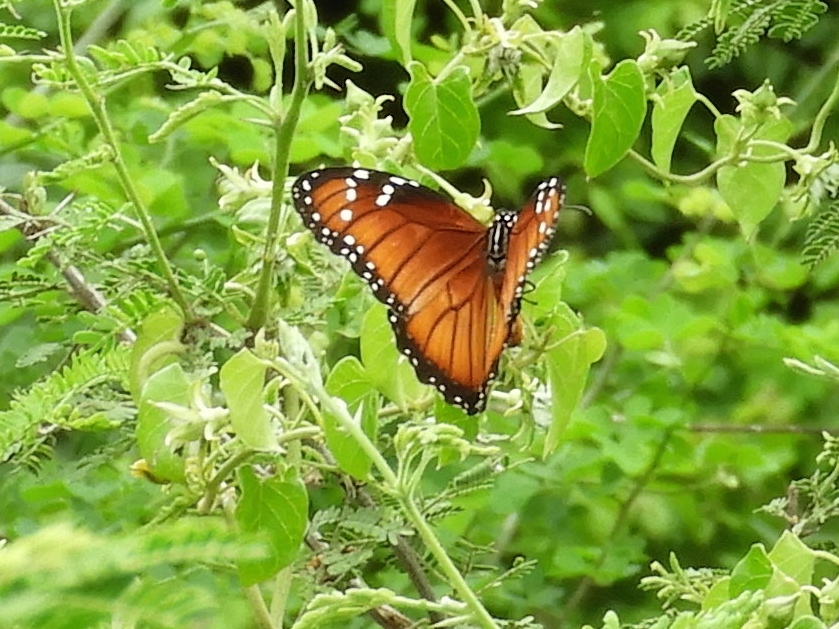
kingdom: Animalia
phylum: Arthropoda
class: Insecta
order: Lepidoptera
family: Nymphalidae
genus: Danaus
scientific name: Danaus eresimus
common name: Soldier
